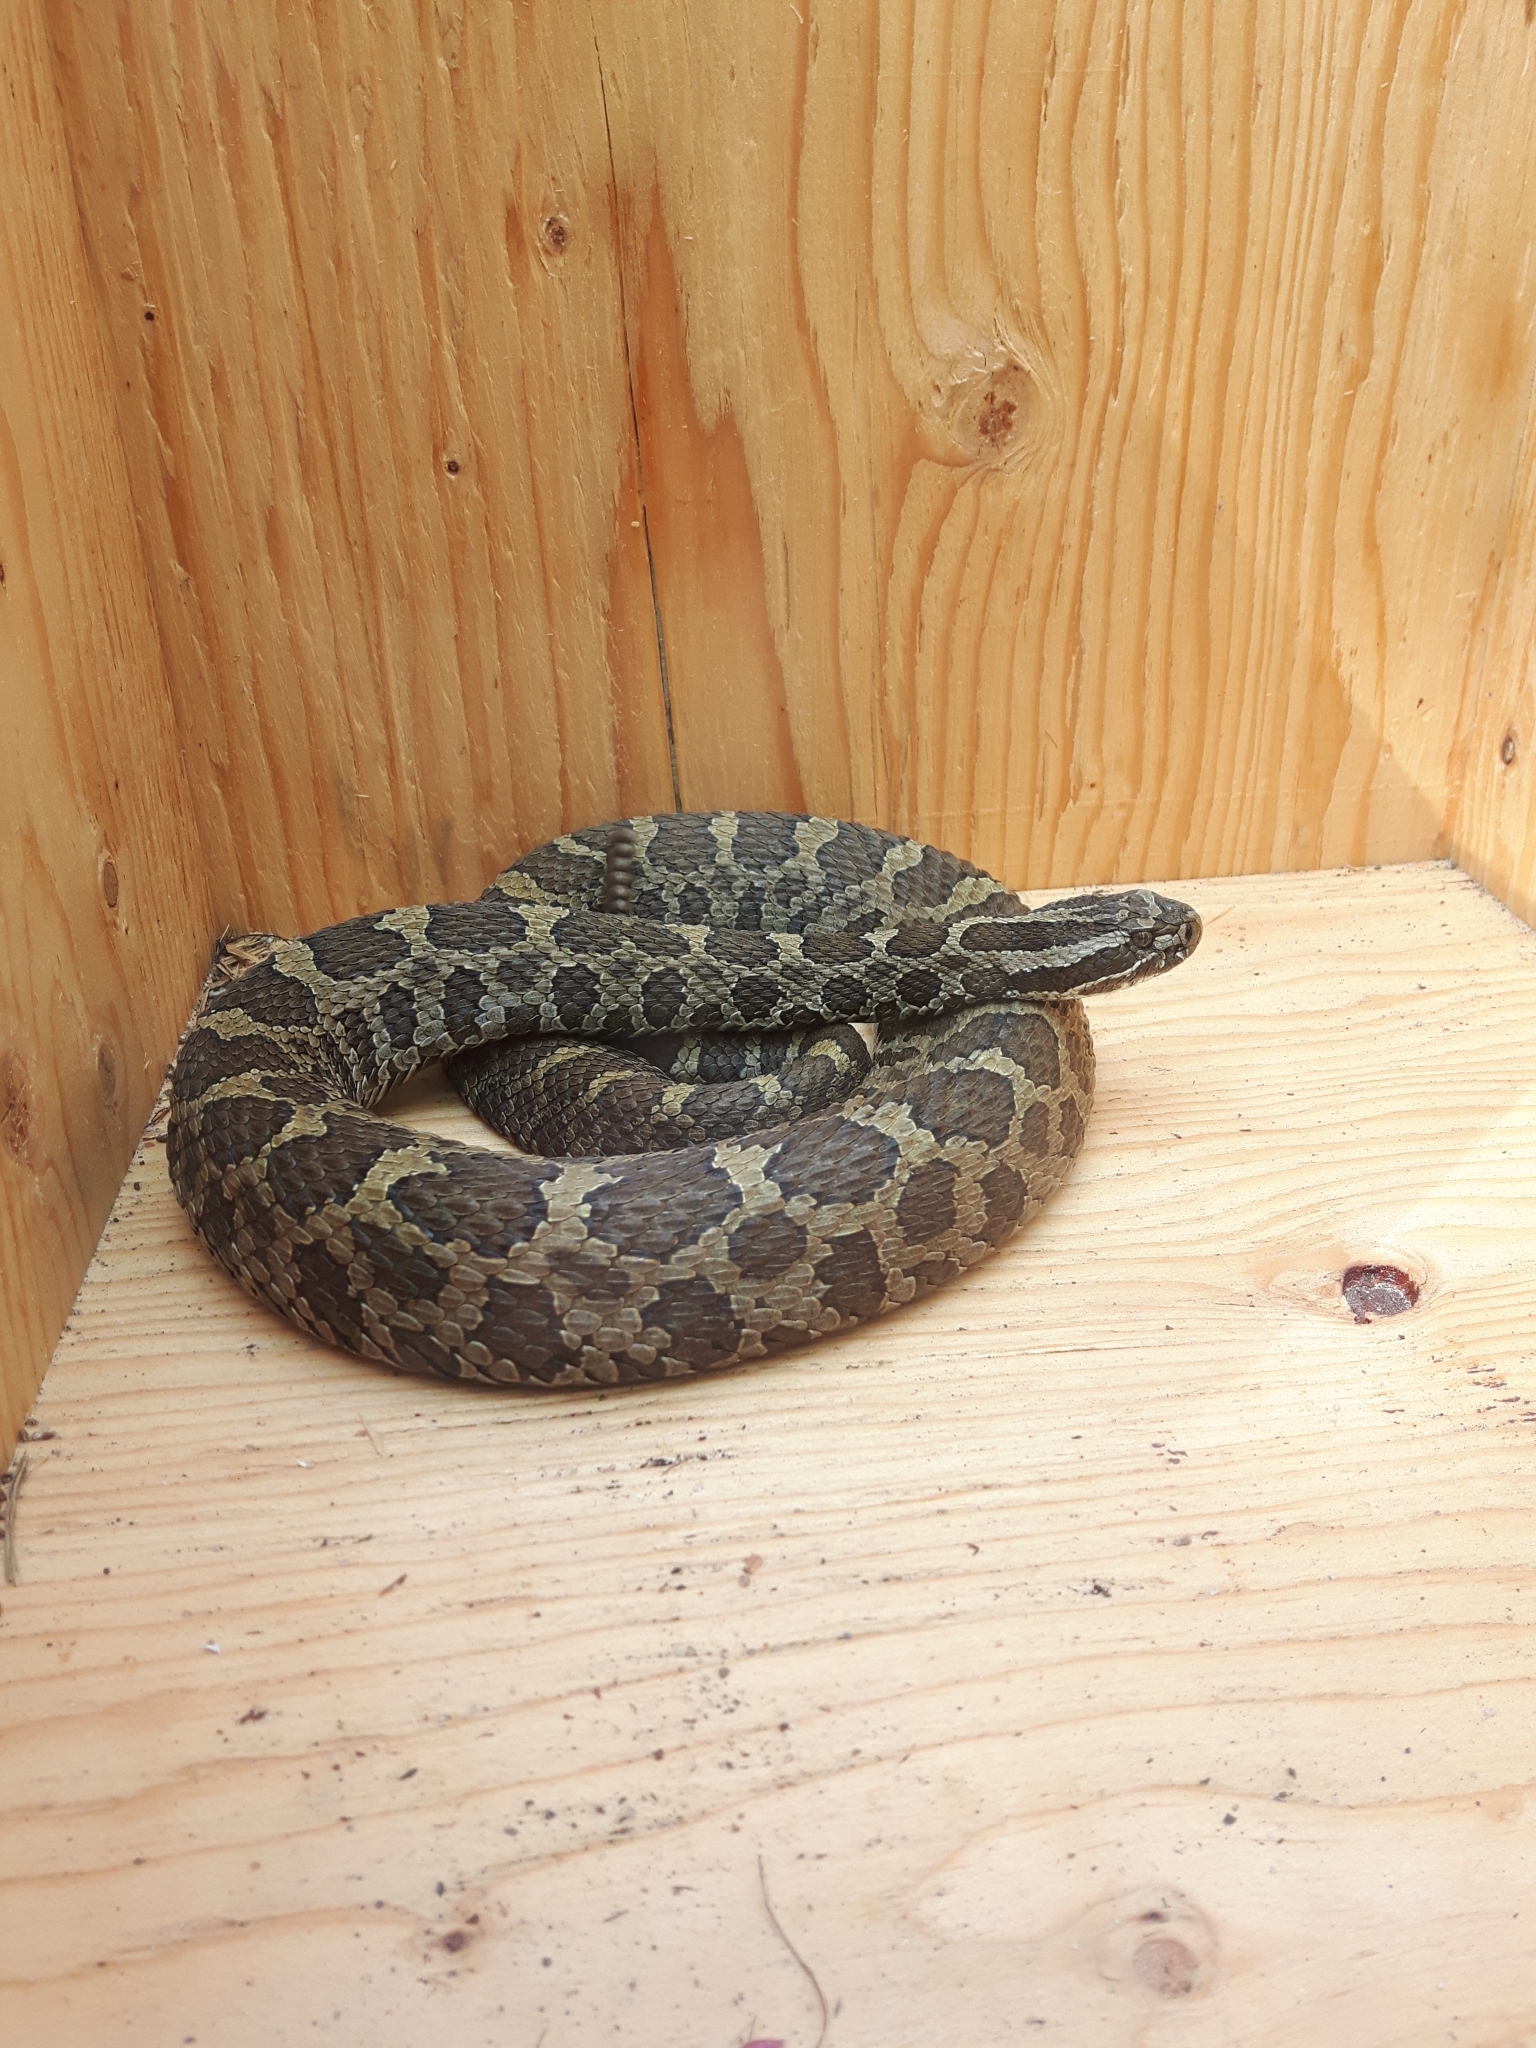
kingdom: Animalia
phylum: Chordata
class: Squamata
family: Viperidae
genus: Sistrurus
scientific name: Sistrurus catenatus
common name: Massasauga
